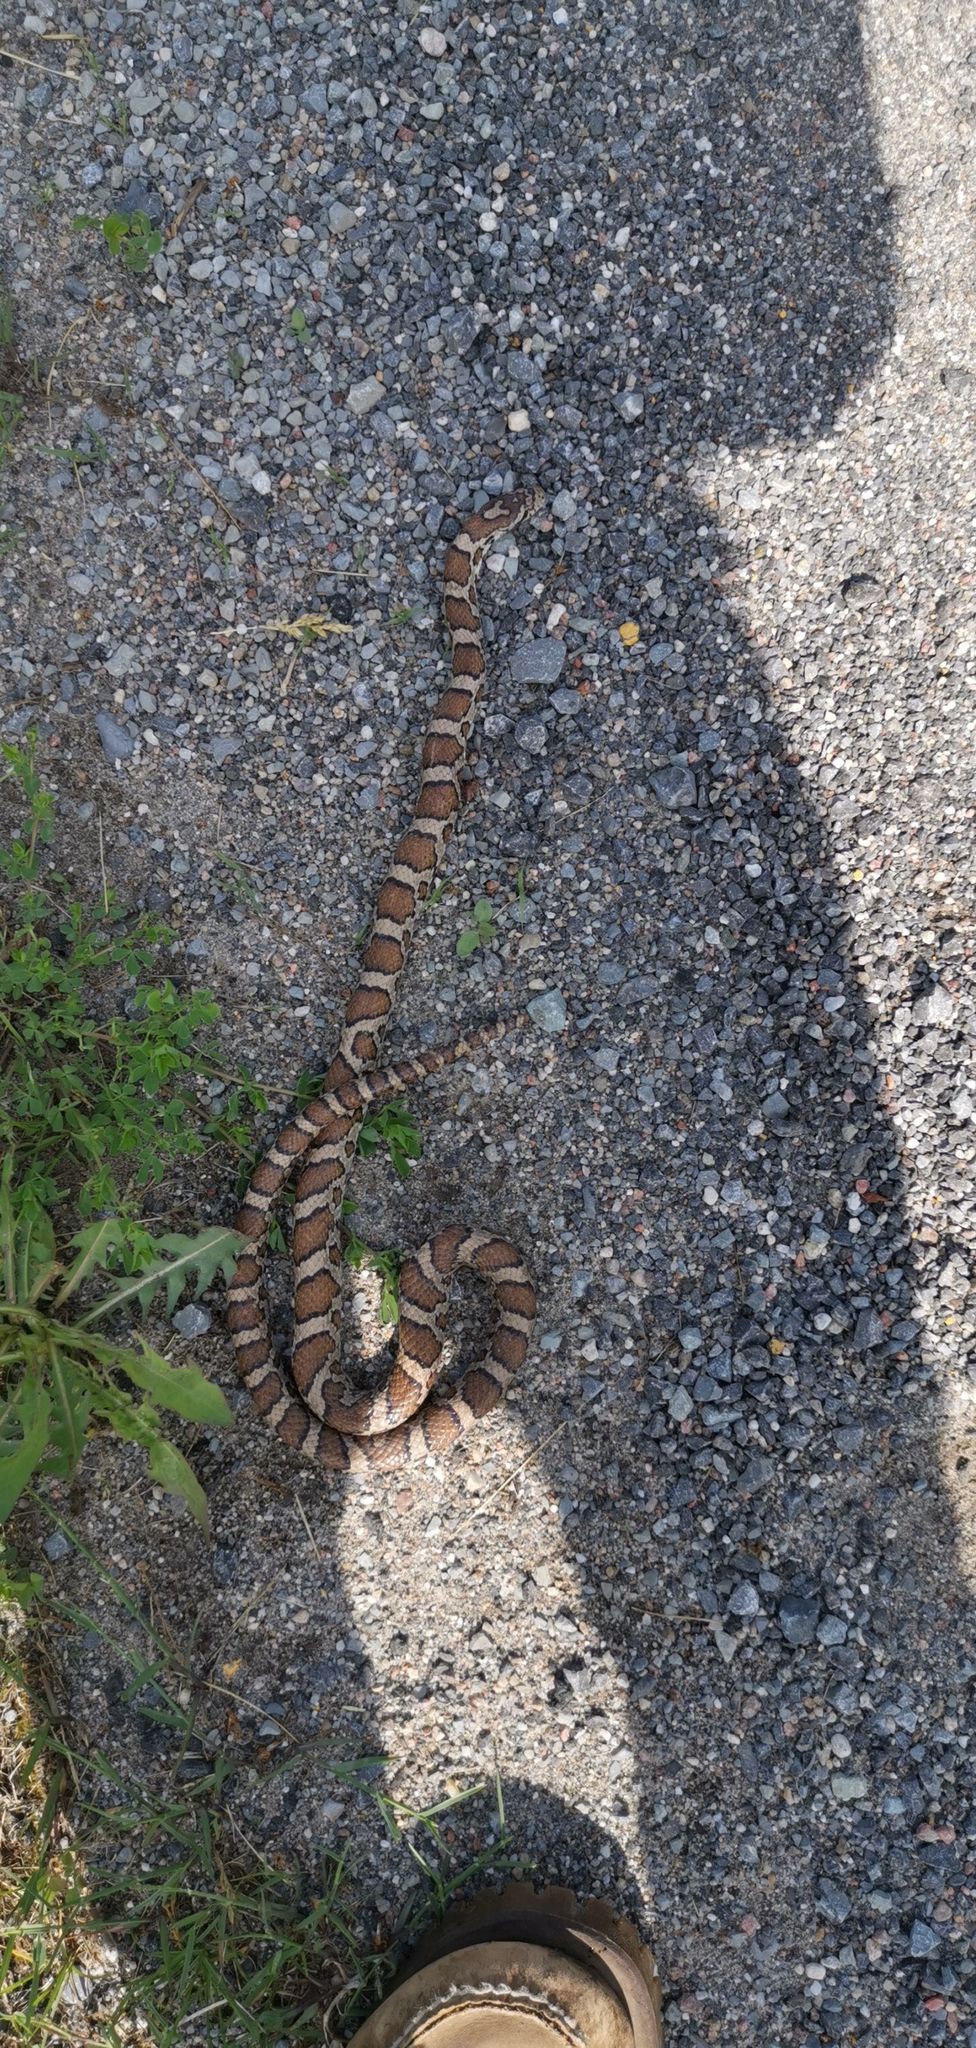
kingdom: Animalia
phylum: Chordata
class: Squamata
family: Colubridae
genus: Lampropeltis
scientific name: Lampropeltis triangulum
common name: Eastern milksnake
